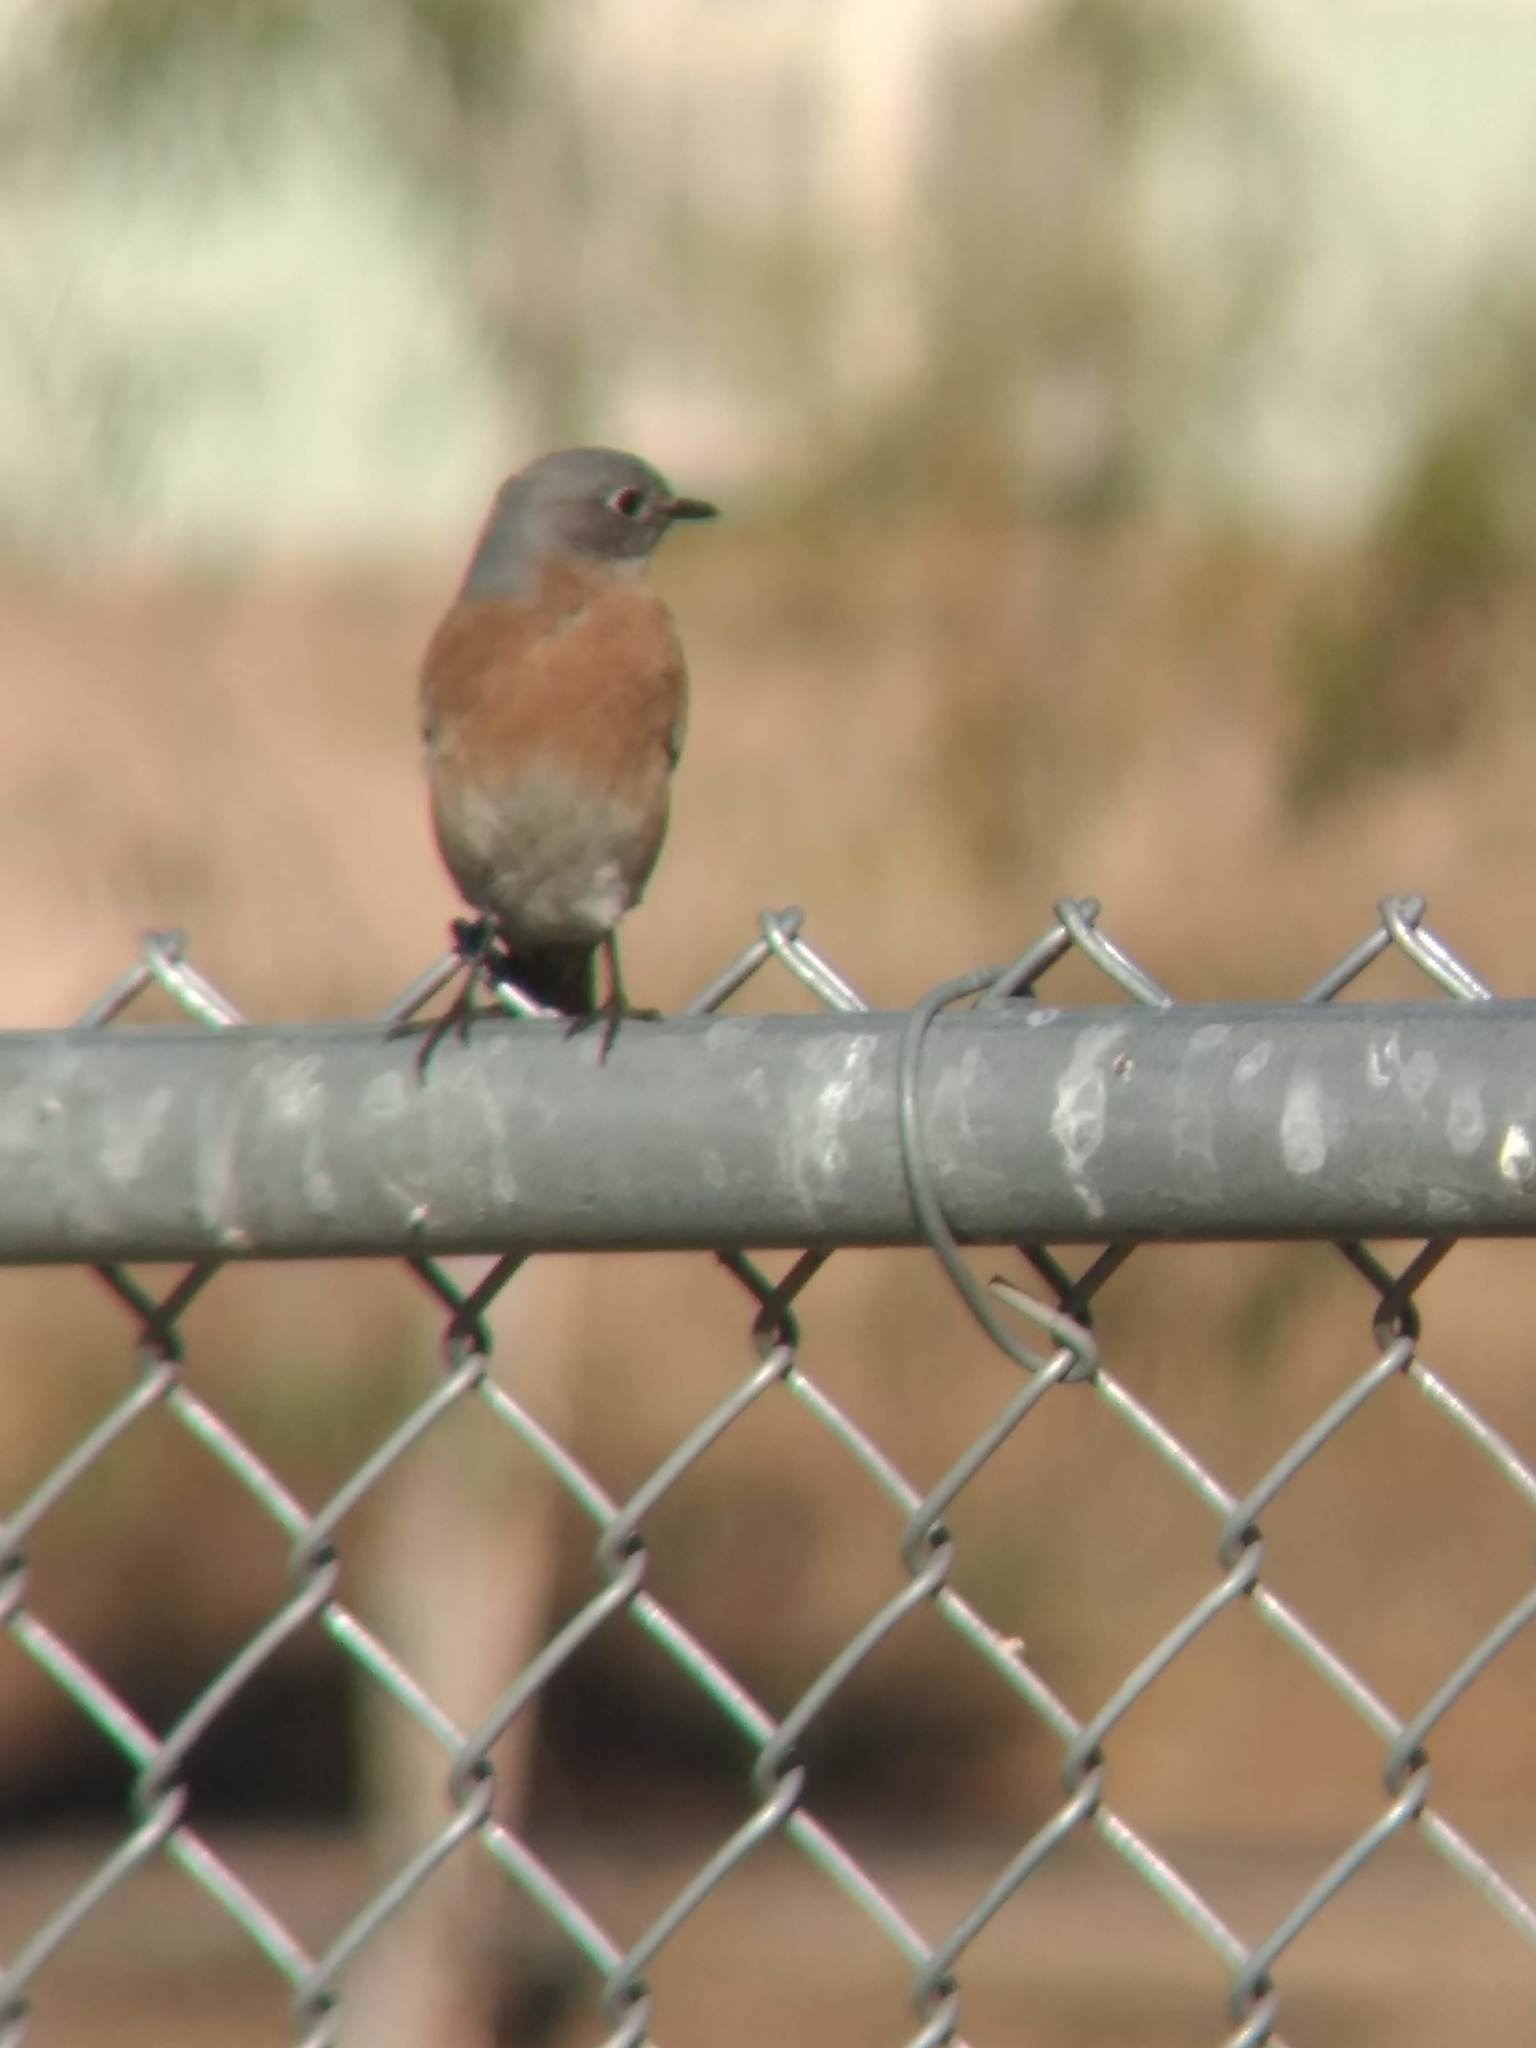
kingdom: Animalia
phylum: Chordata
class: Aves
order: Passeriformes
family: Turdidae
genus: Sialia
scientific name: Sialia mexicana
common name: Western bluebird
